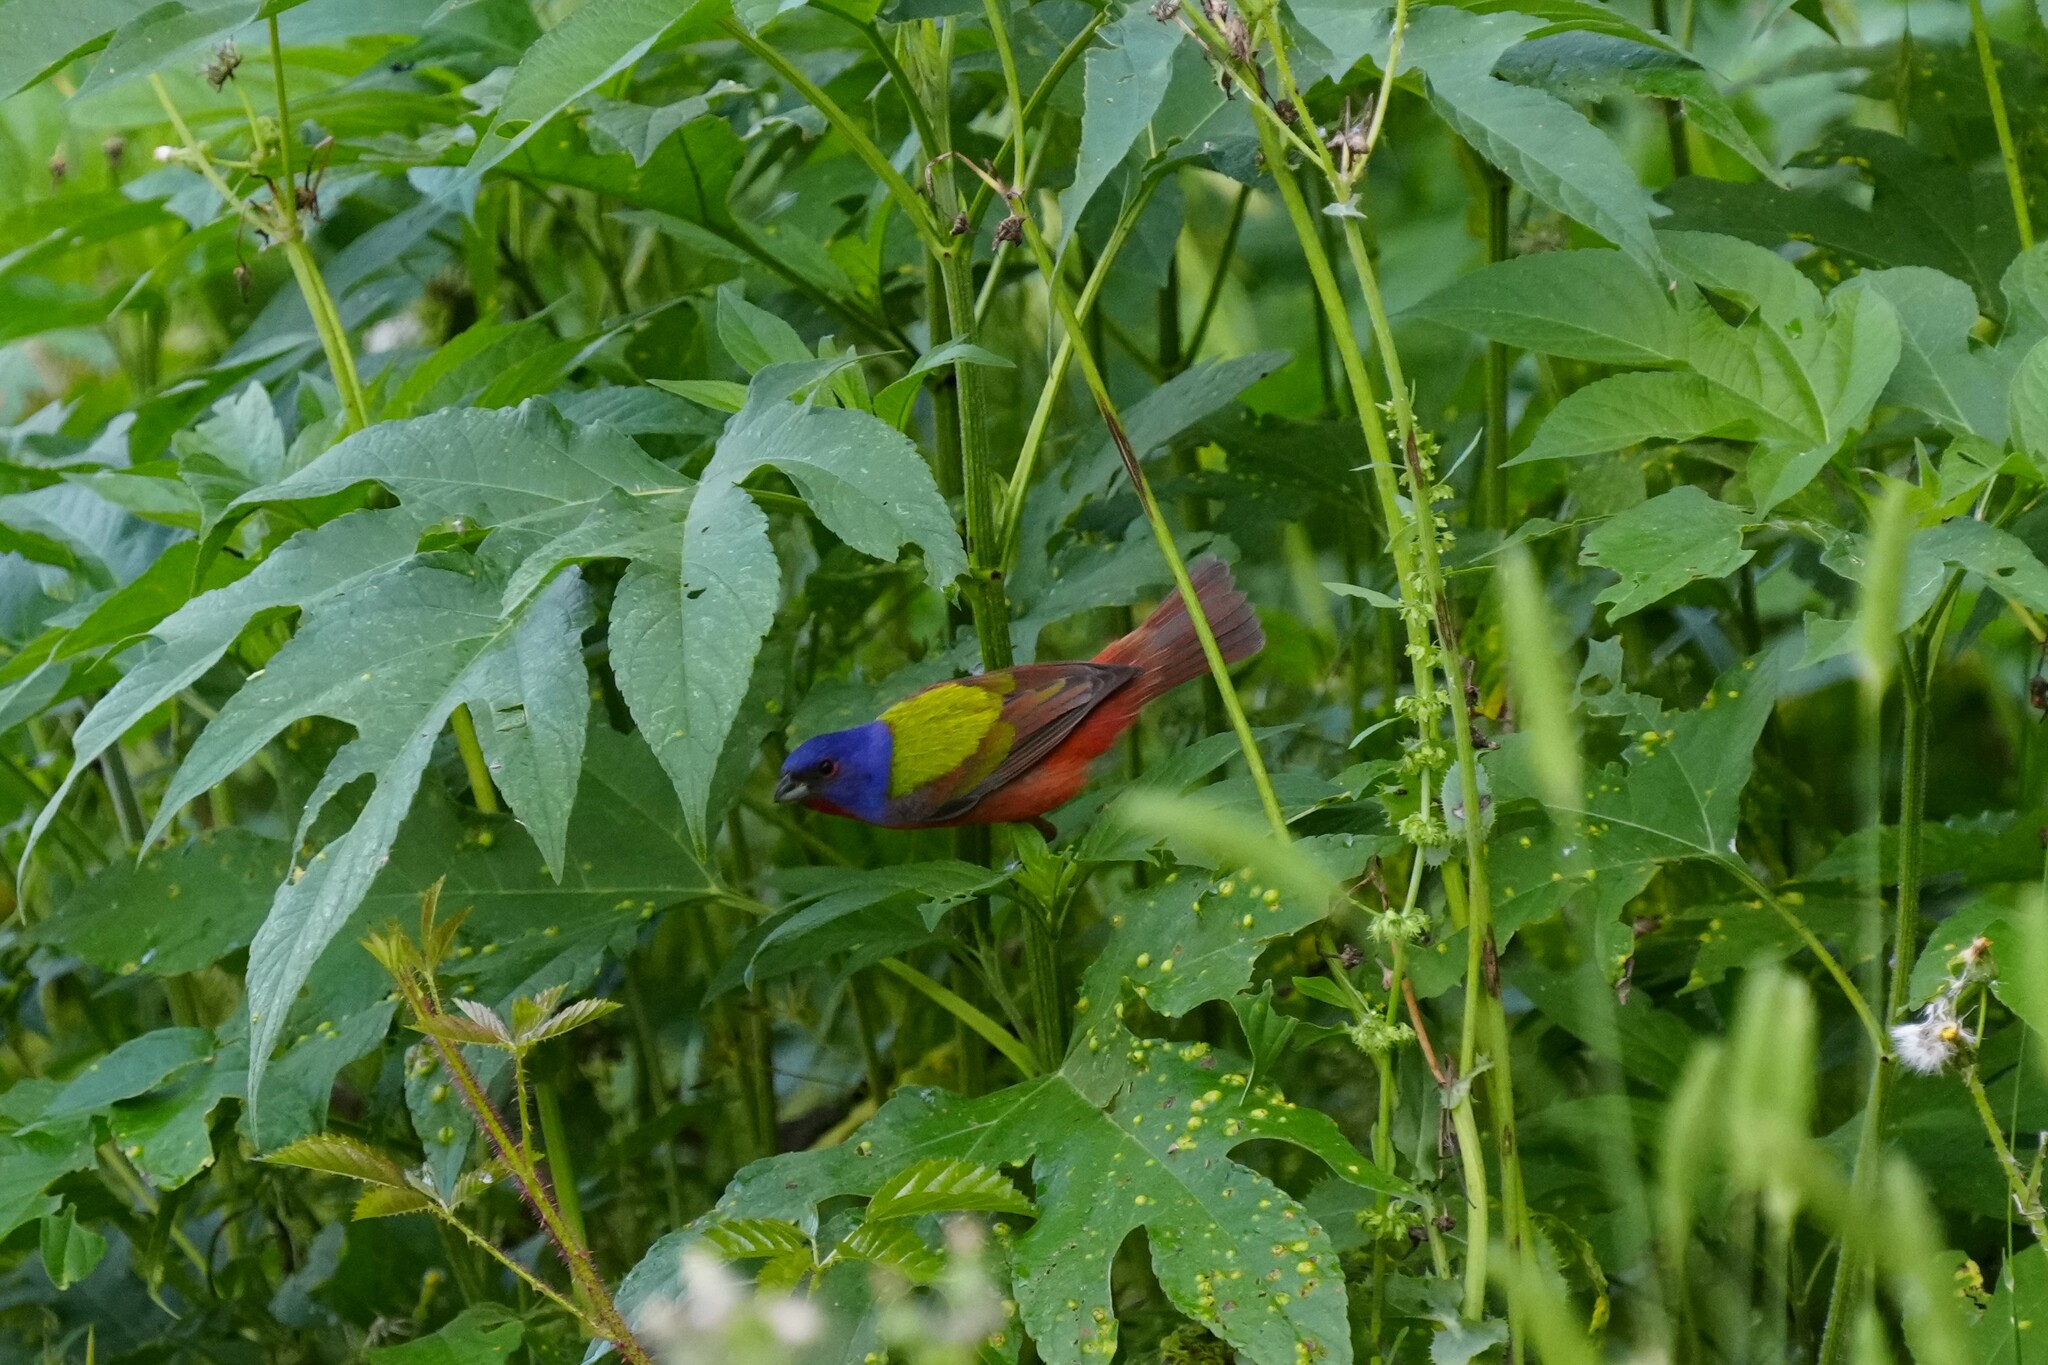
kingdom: Animalia
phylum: Chordata
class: Aves
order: Passeriformes
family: Cardinalidae
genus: Passerina
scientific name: Passerina ciris
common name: Painted bunting
